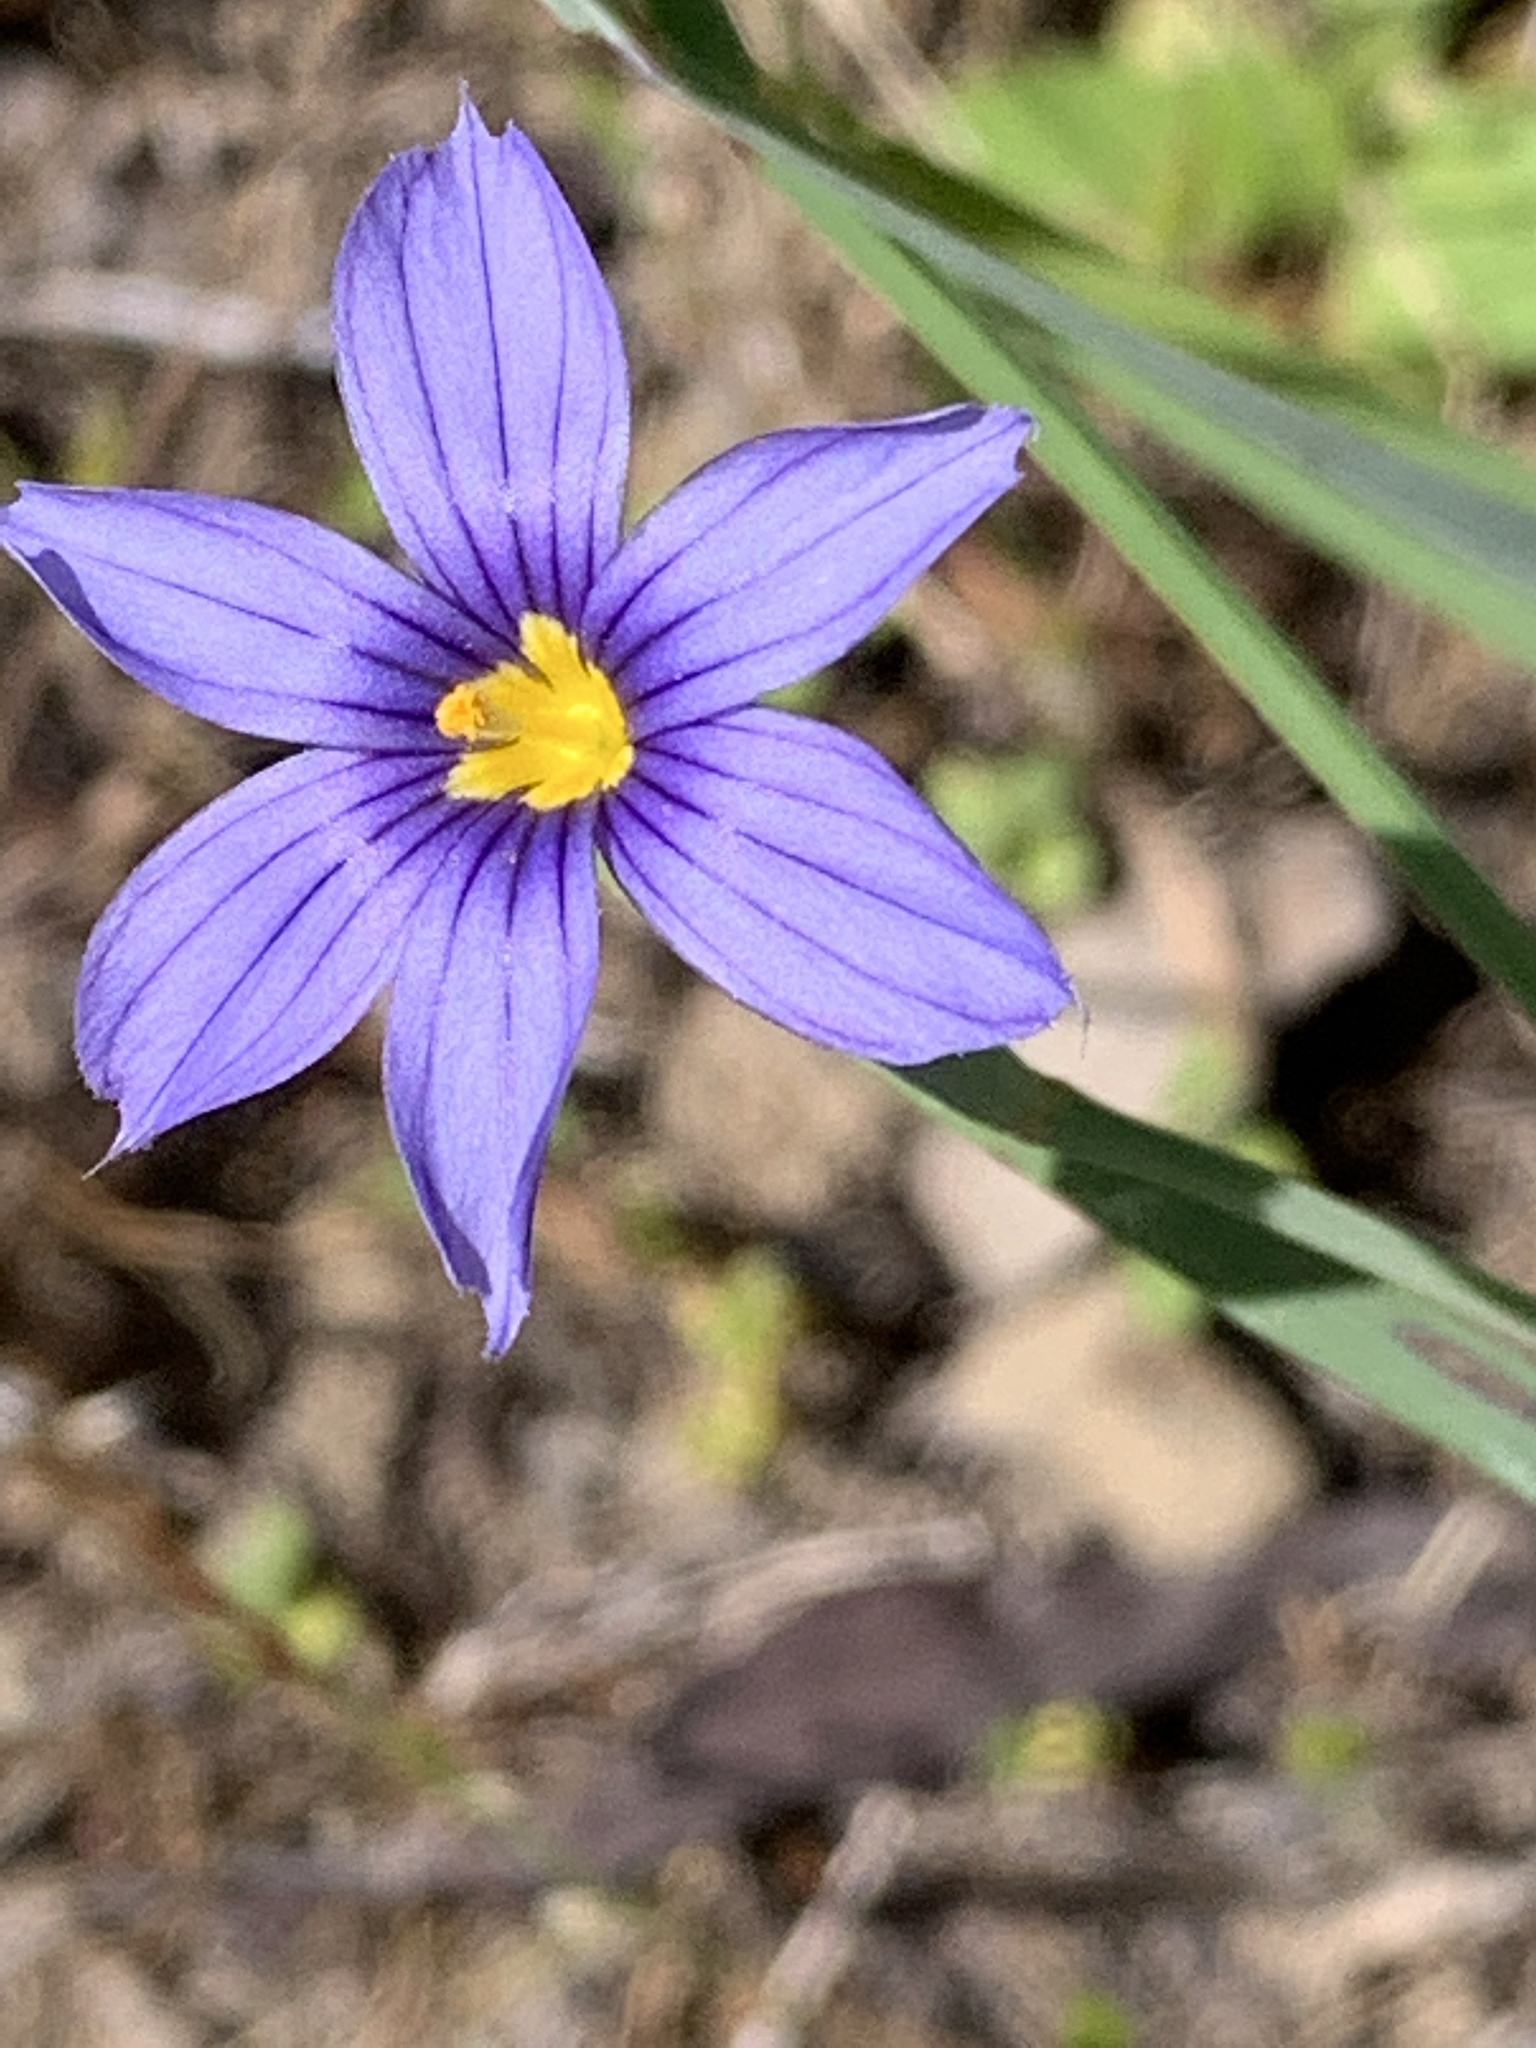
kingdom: Plantae
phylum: Tracheophyta
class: Liliopsida
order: Asparagales
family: Iridaceae
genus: Sisyrinchium
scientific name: Sisyrinchium bellum
